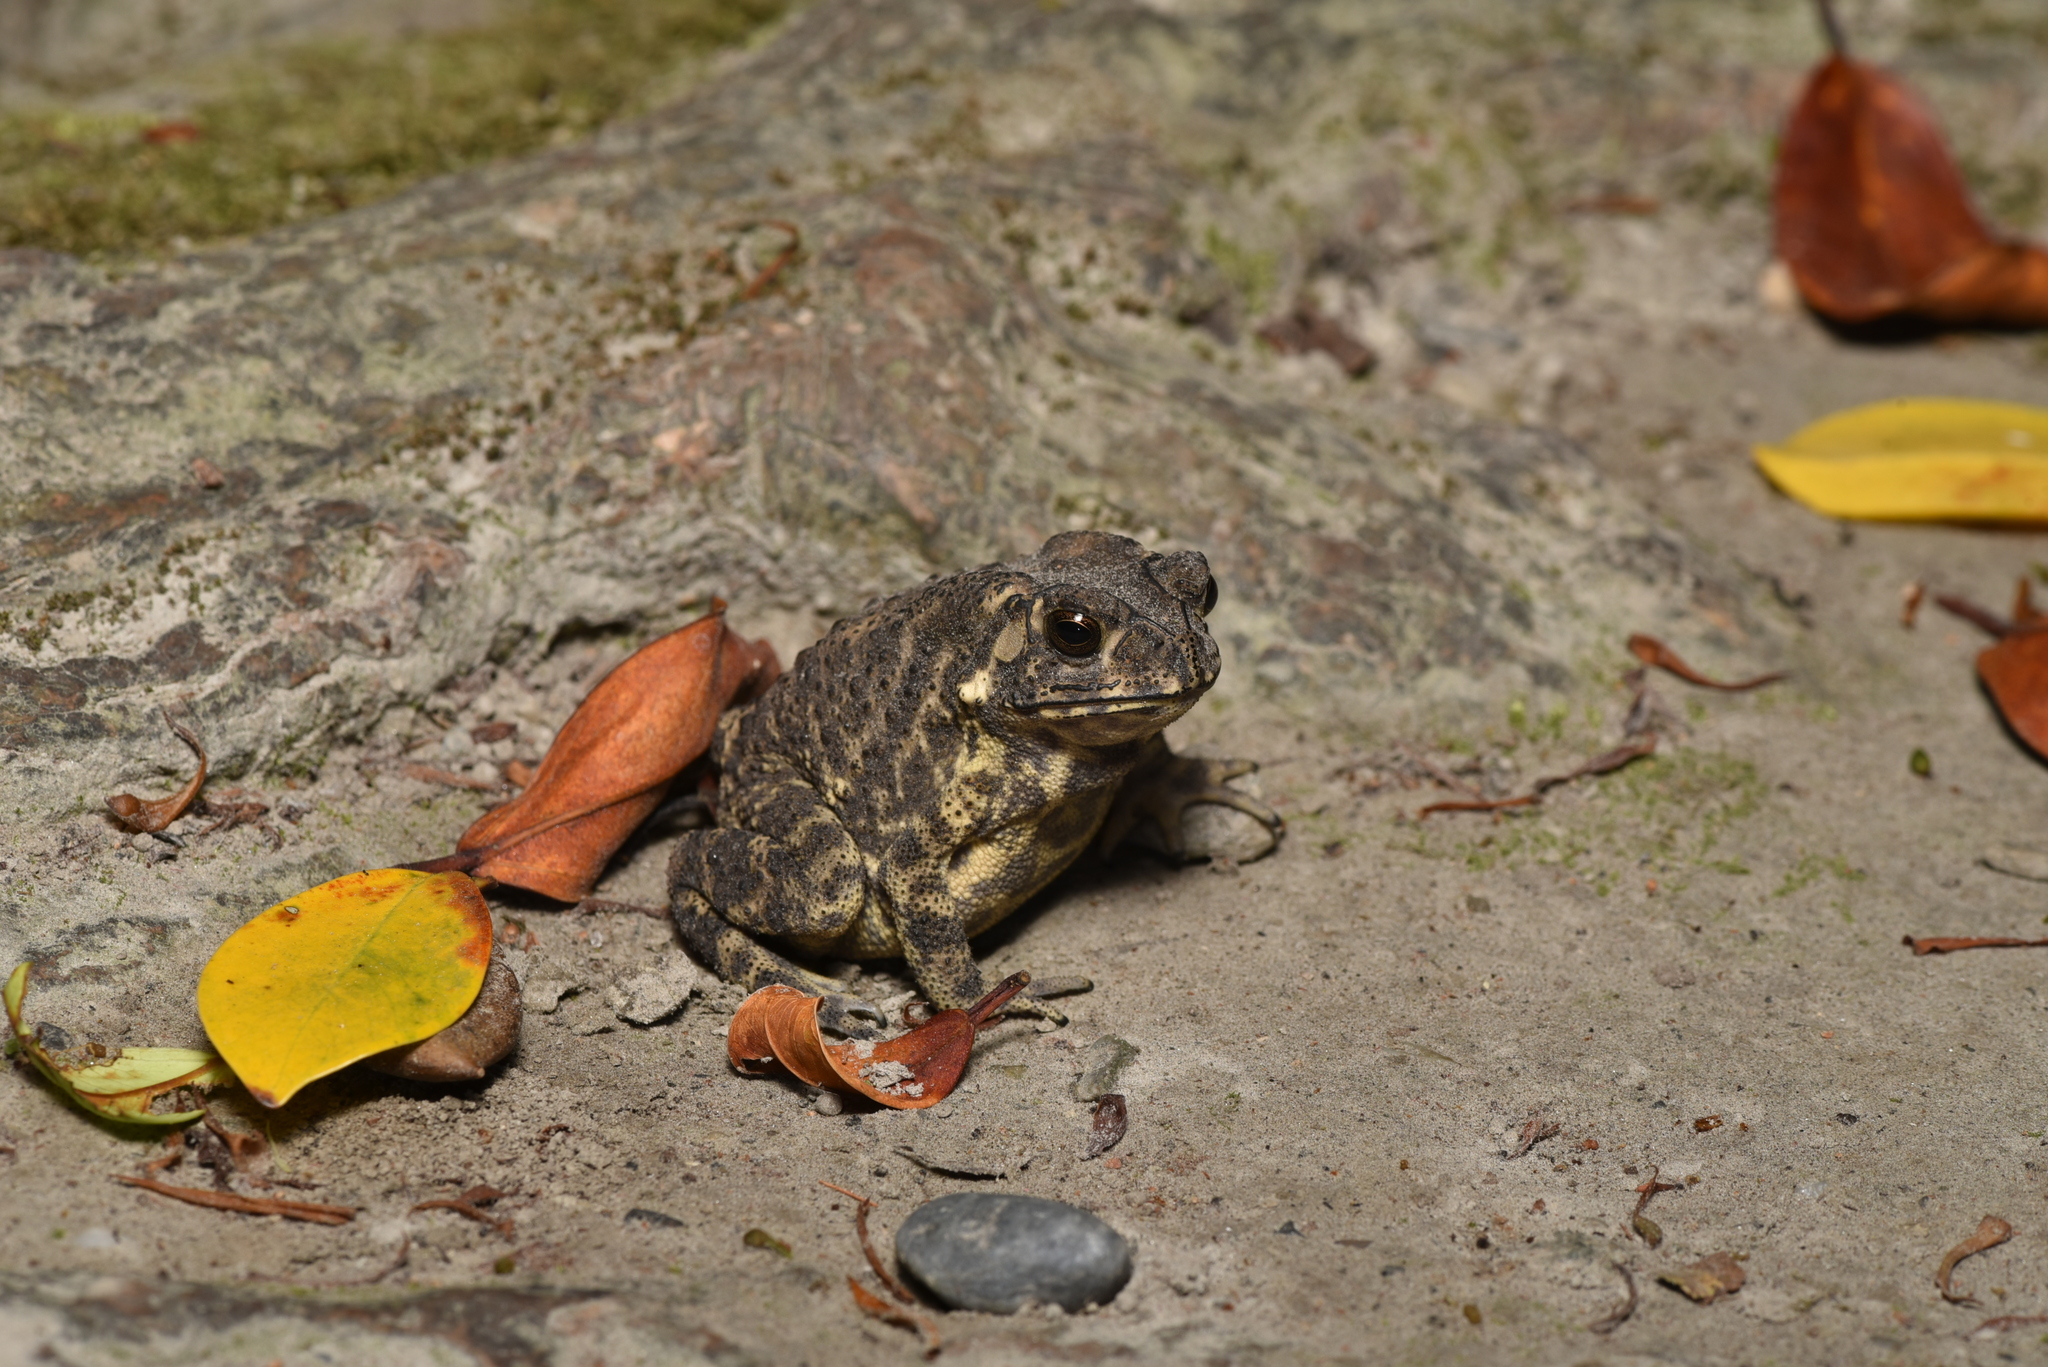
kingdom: Animalia
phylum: Chordata
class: Amphibia
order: Anura
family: Bufonidae
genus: Duttaphrynus
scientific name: Duttaphrynus melanostictus
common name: Common sunda toad
